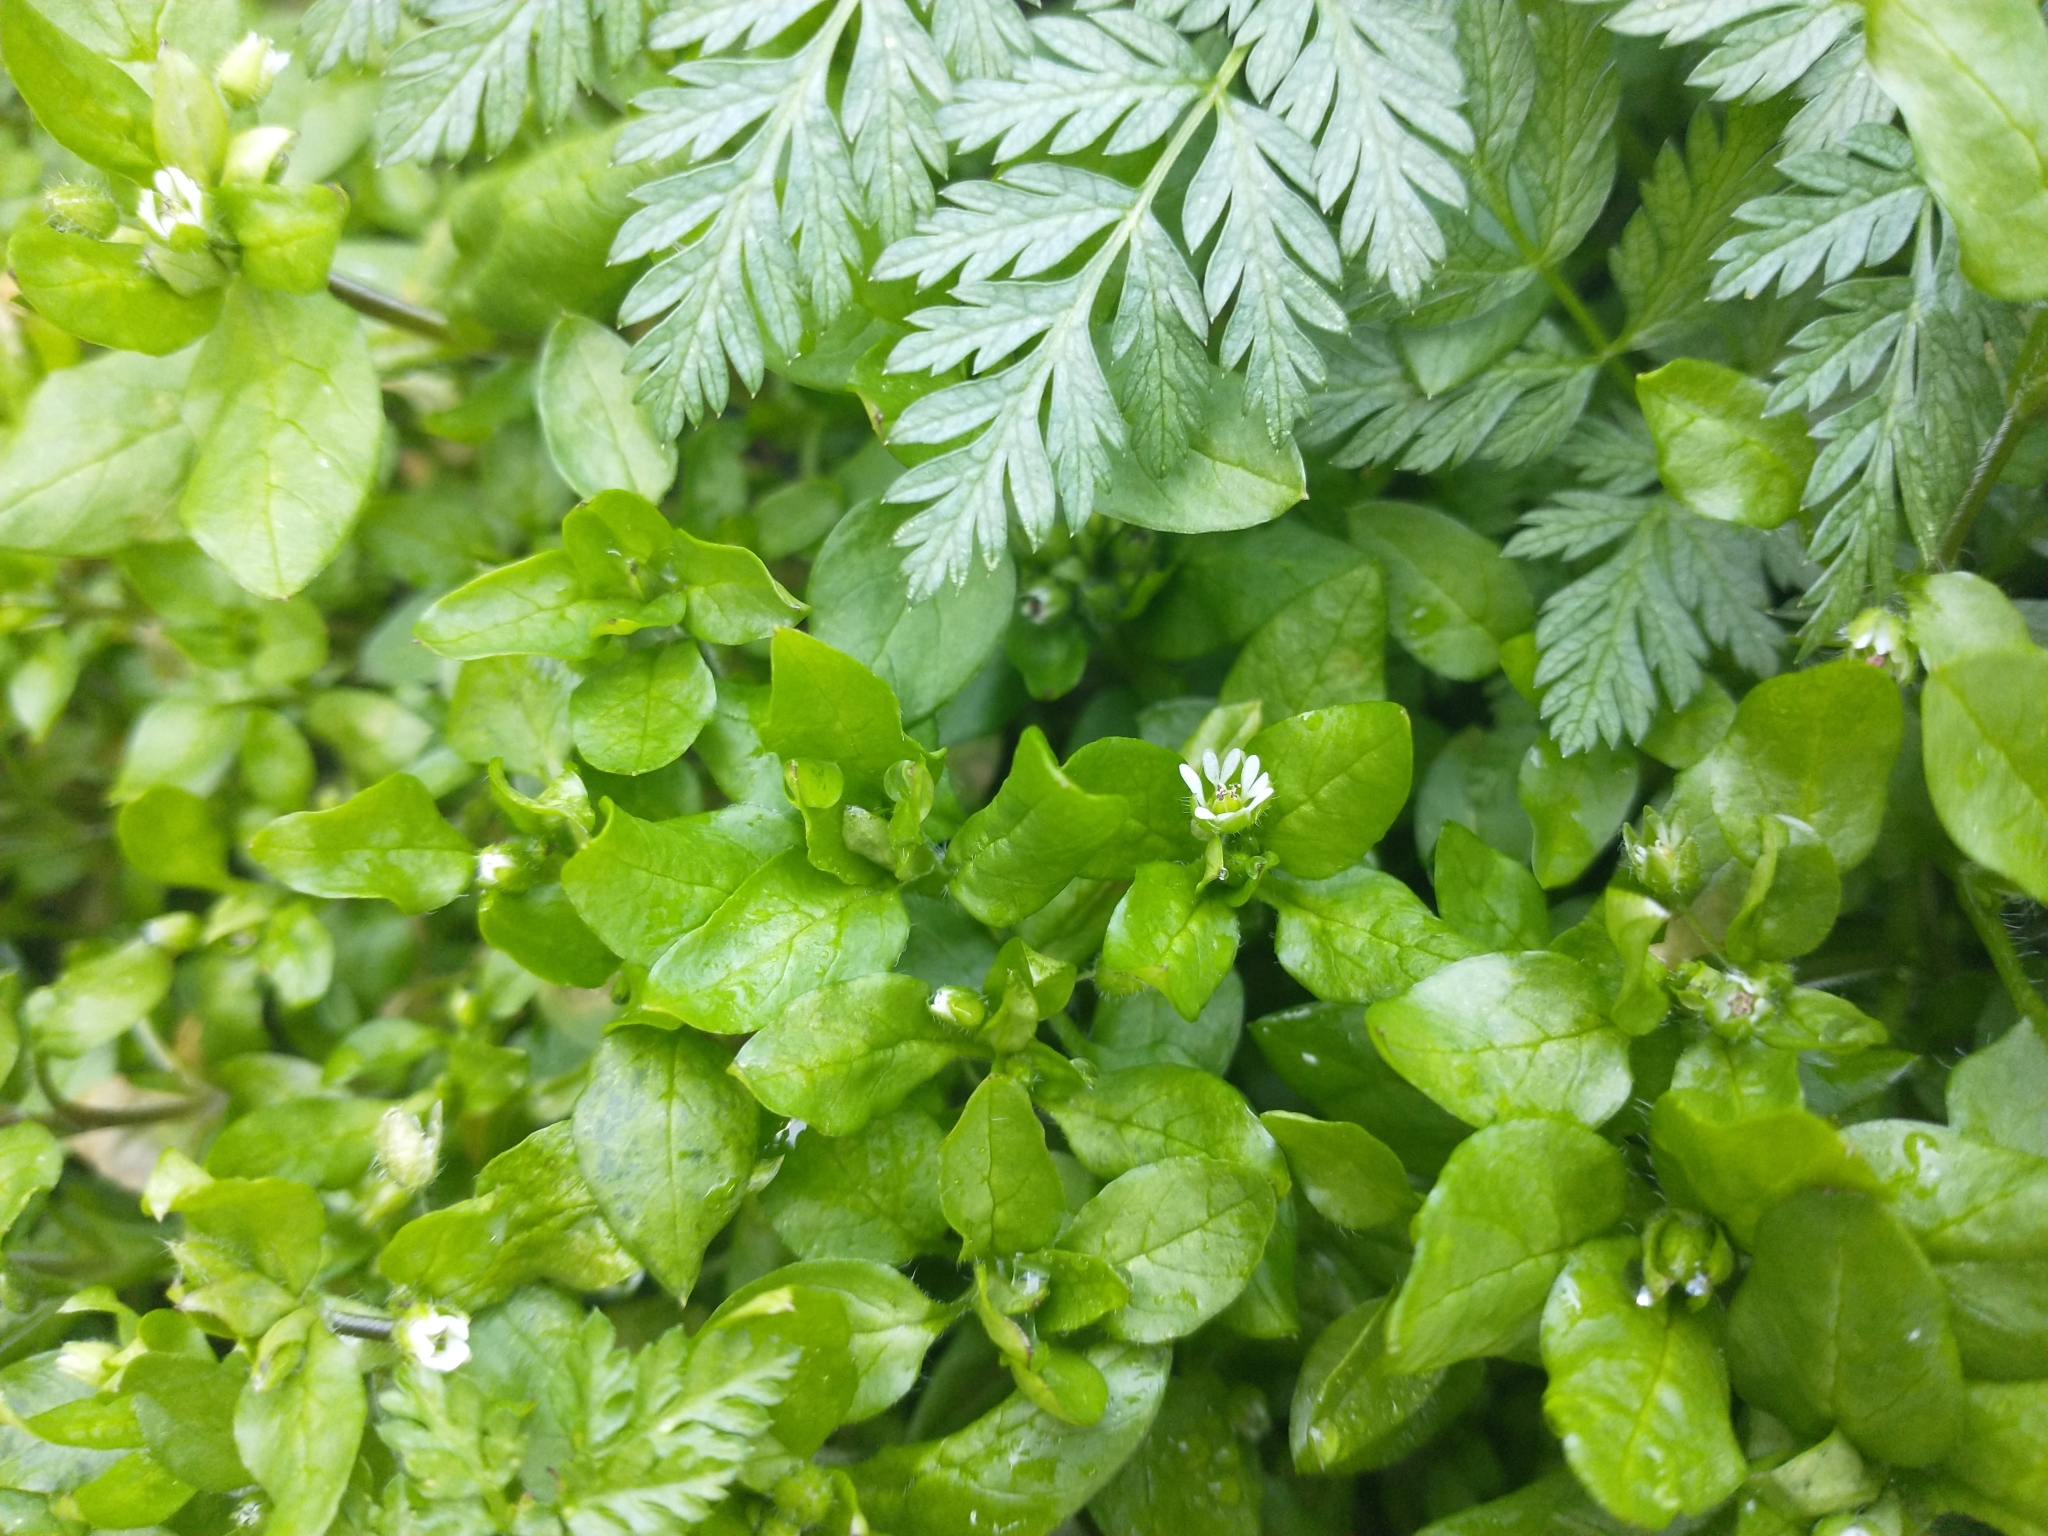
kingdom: Plantae
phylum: Tracheophyta
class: Magnoliopsida
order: Caryophyllales
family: Caryophyllaceae
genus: Stellaria
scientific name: Stellaria media
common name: Common chickweed
